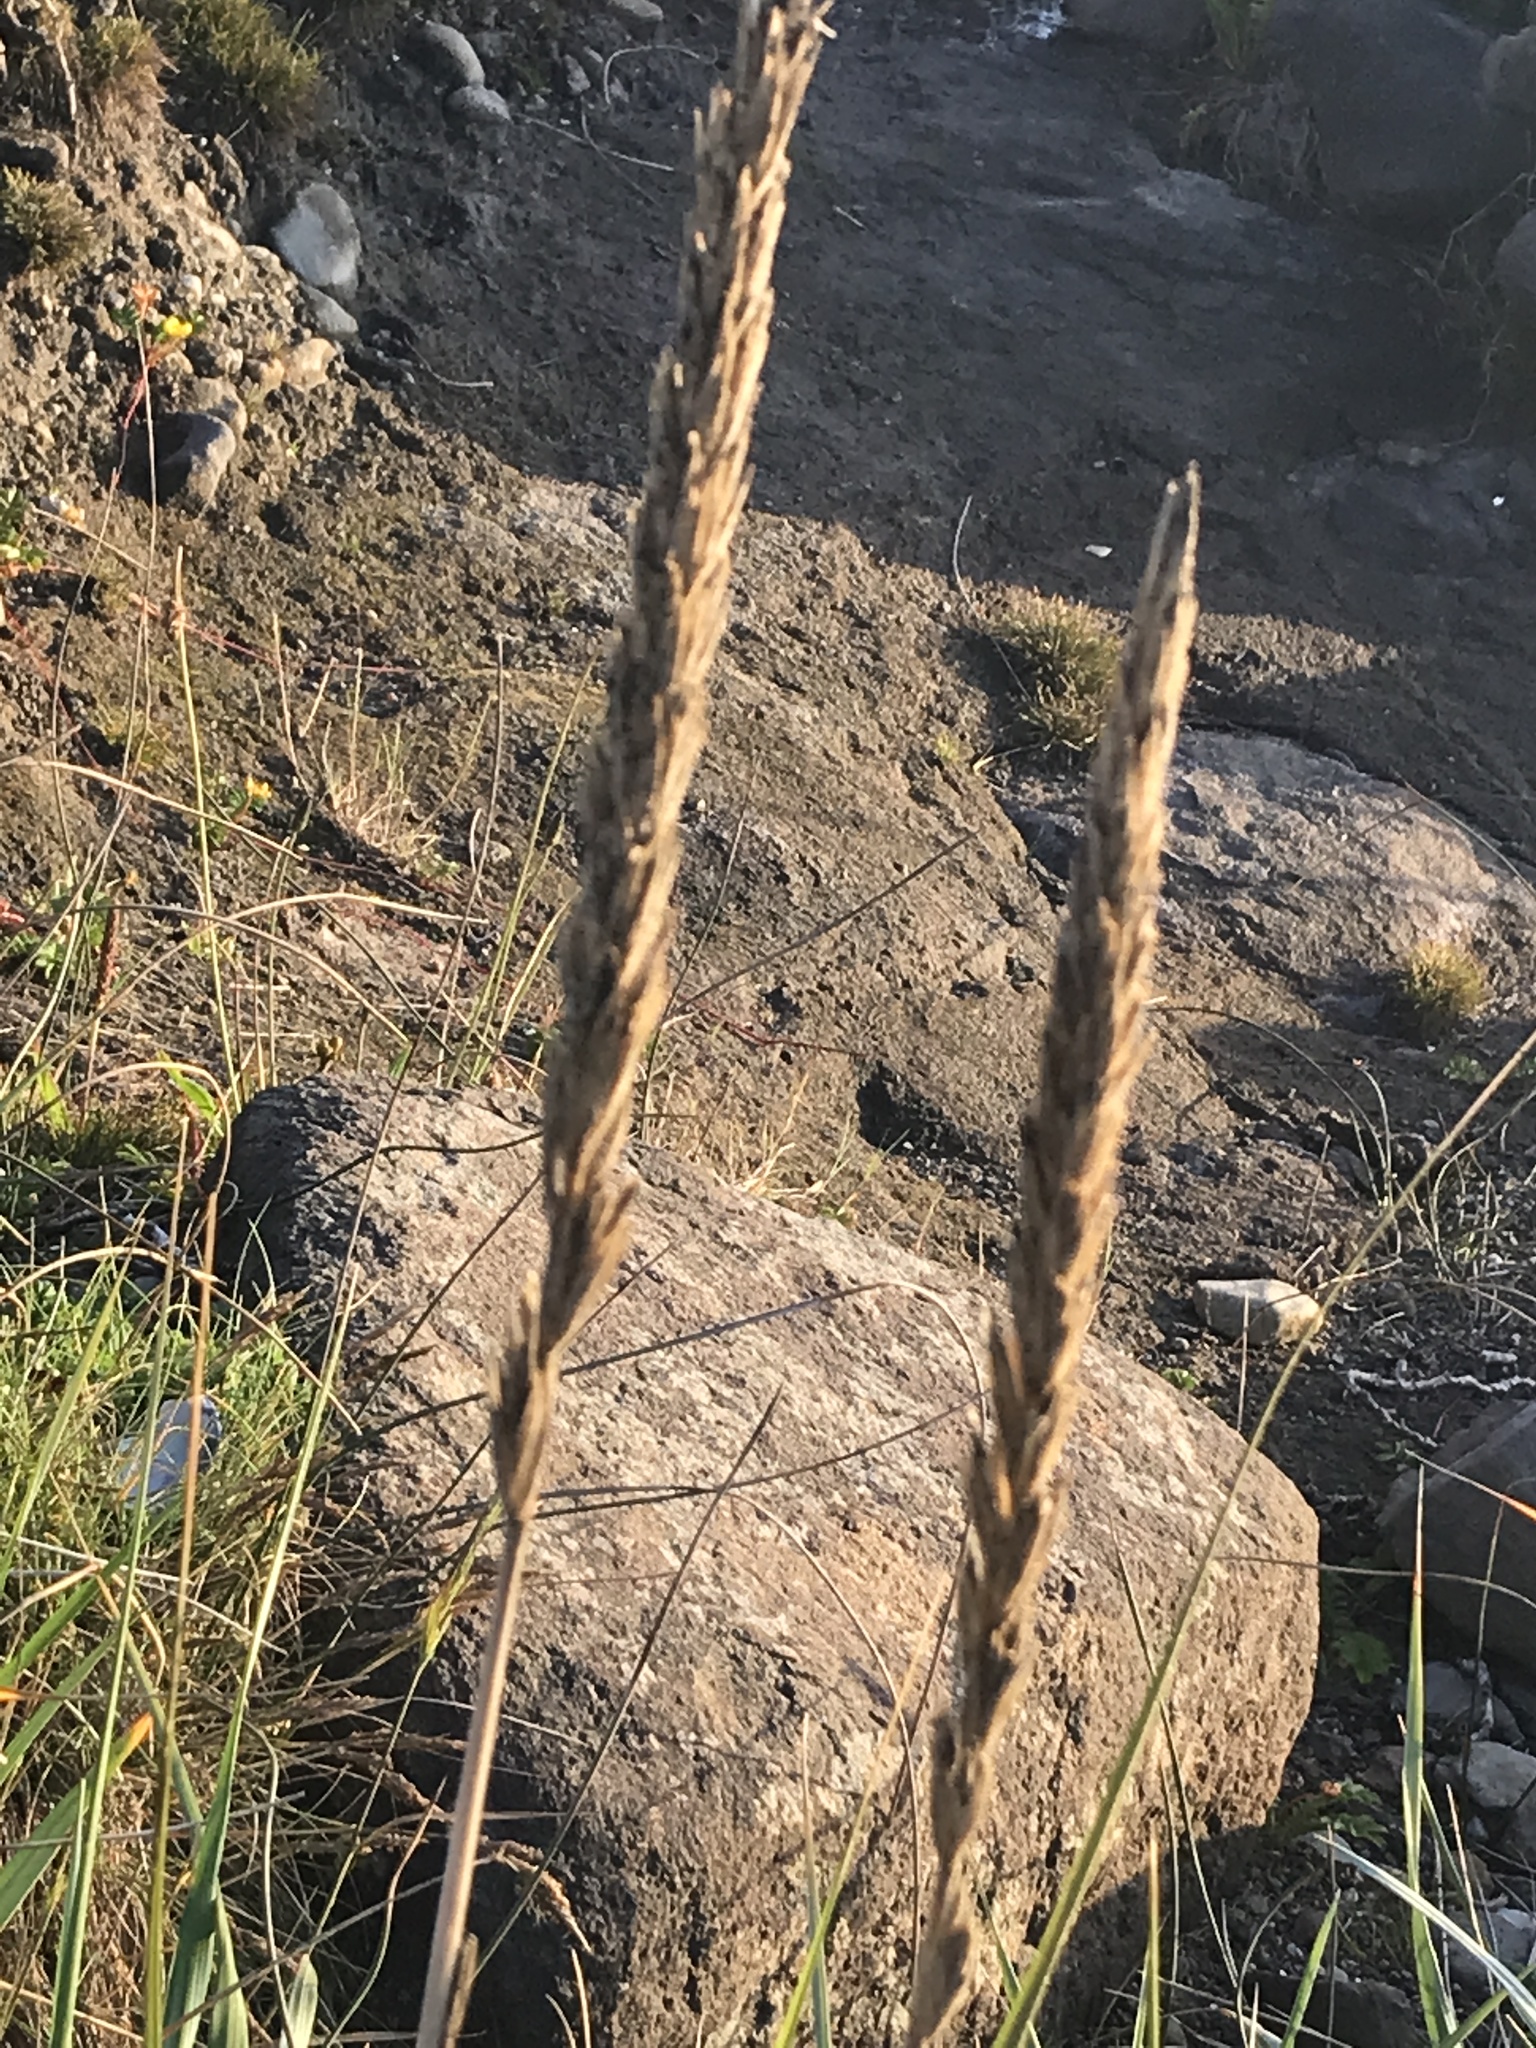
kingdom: Plantae
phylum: Tracheophyta
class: Liliopsida
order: Poales
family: Poaceae
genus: Leymus
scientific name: Leymus mollis
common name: American dune grass
